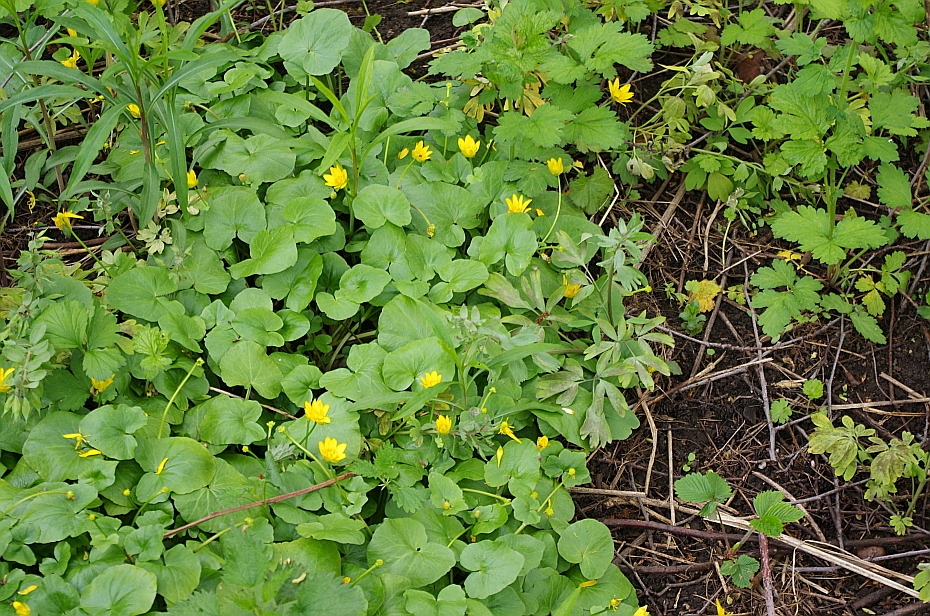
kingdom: Plantae
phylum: Tracheophyta
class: Magnoliopsida
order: Ranunculales
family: Ranunculaceae
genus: Ficaria
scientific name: Ficaria verna
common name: Lesser celandine
